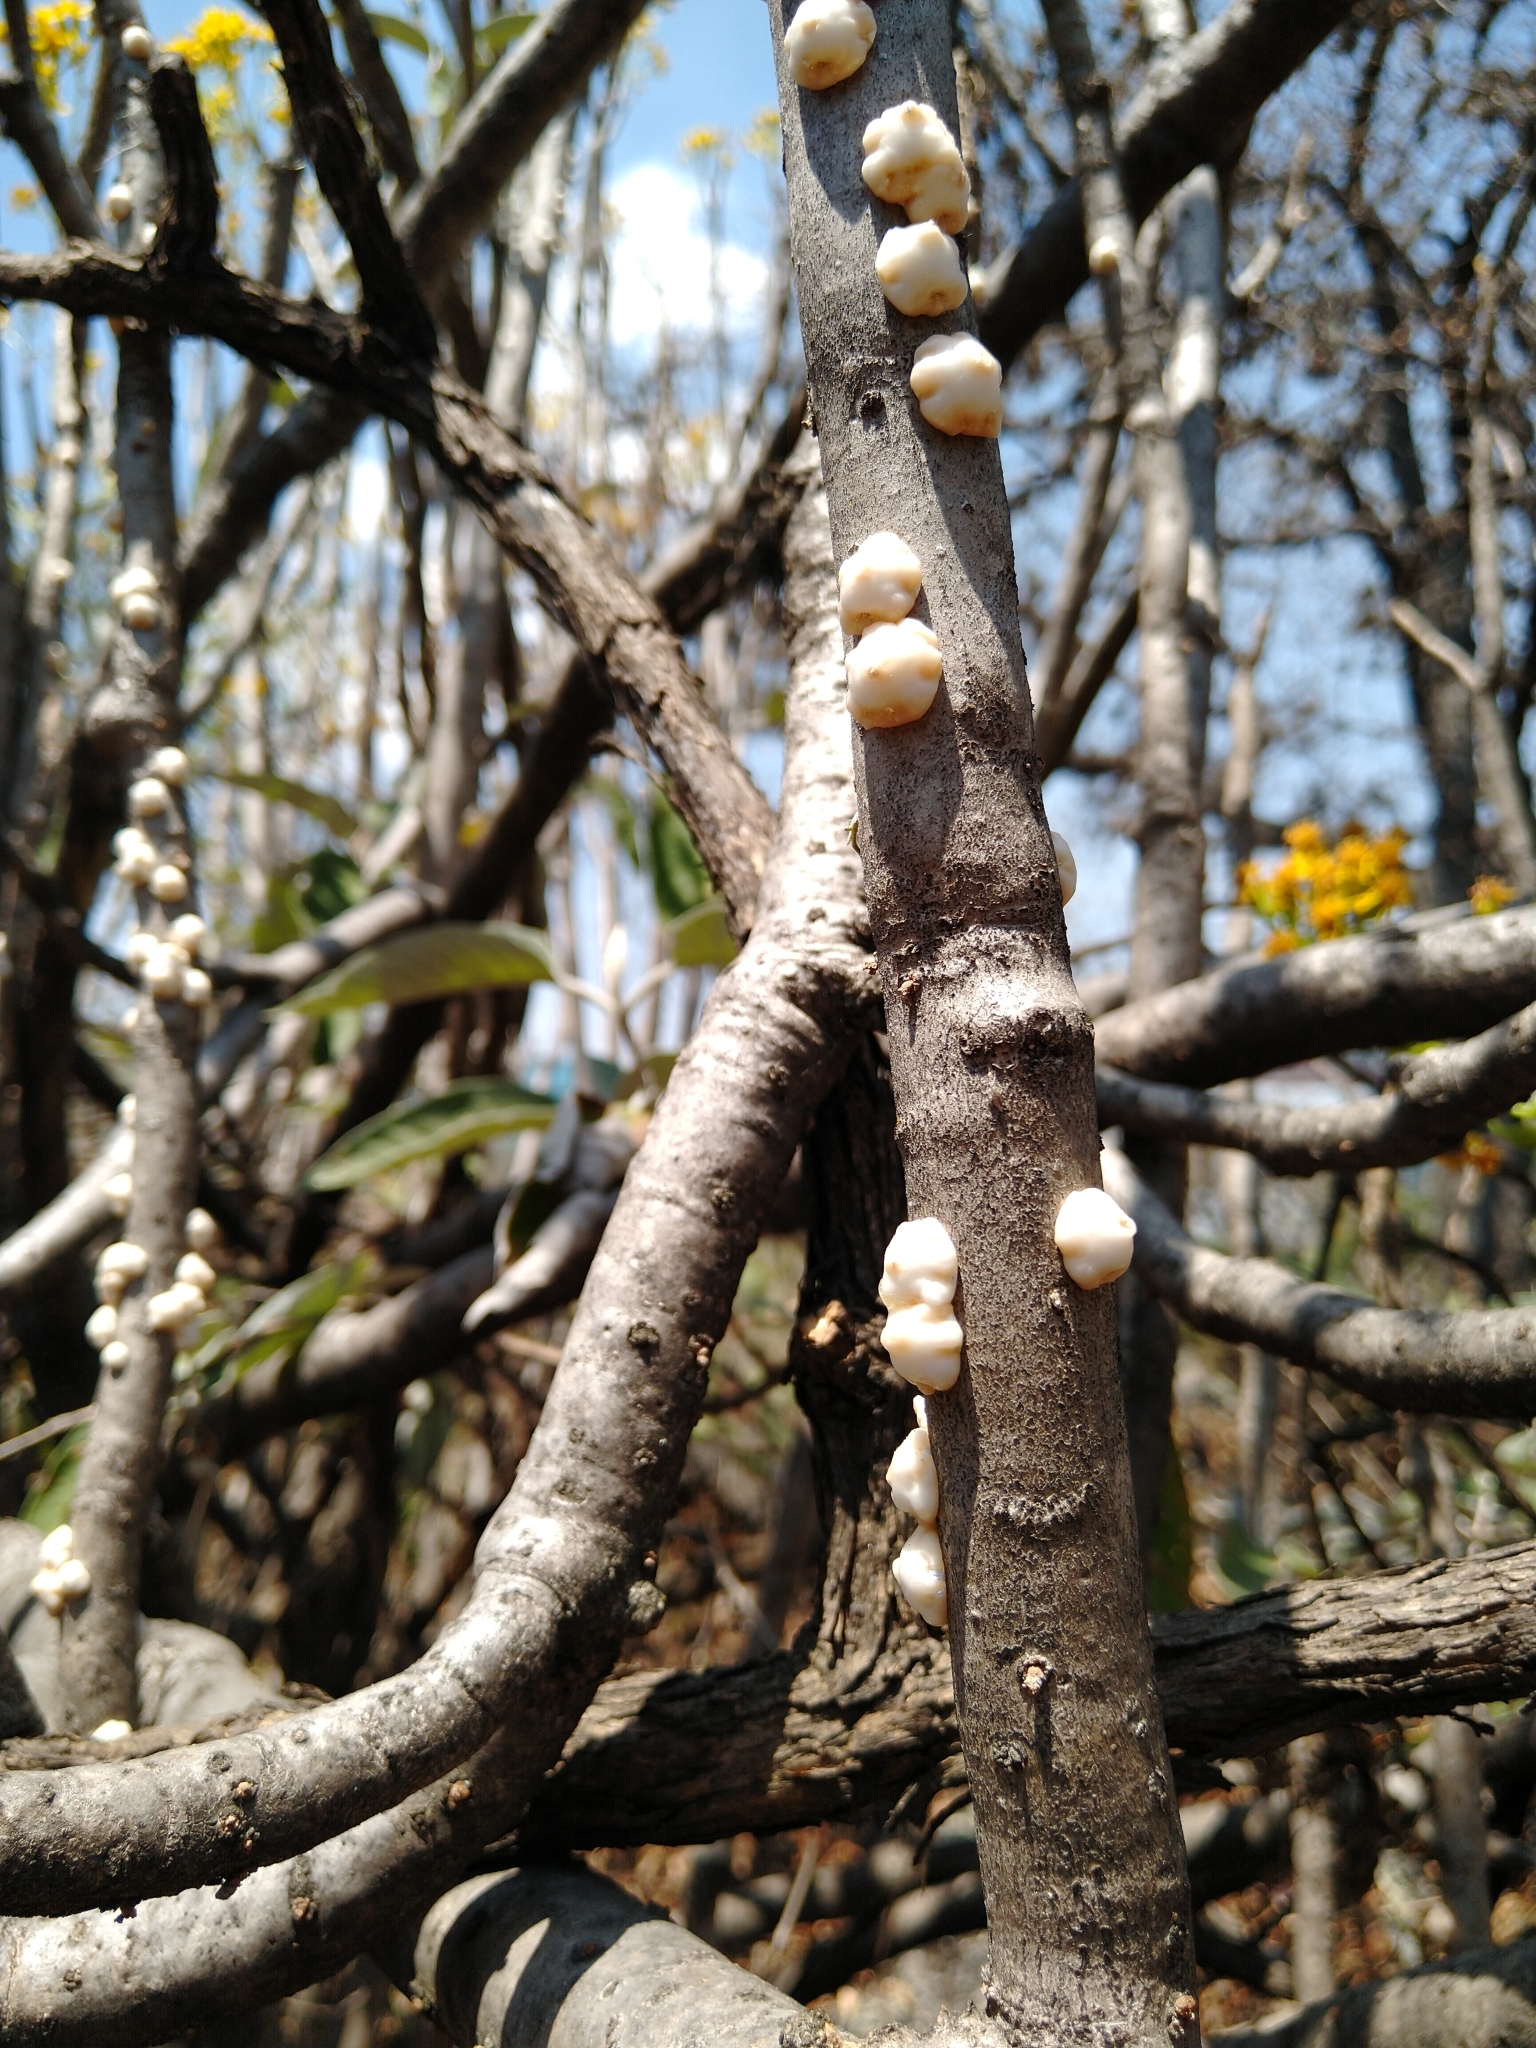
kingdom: Animalia
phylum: Arthropoda
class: Insecta
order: Hemiptera
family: Coccidae
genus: Ceroplastes
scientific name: Ceroplastes albolineatus
